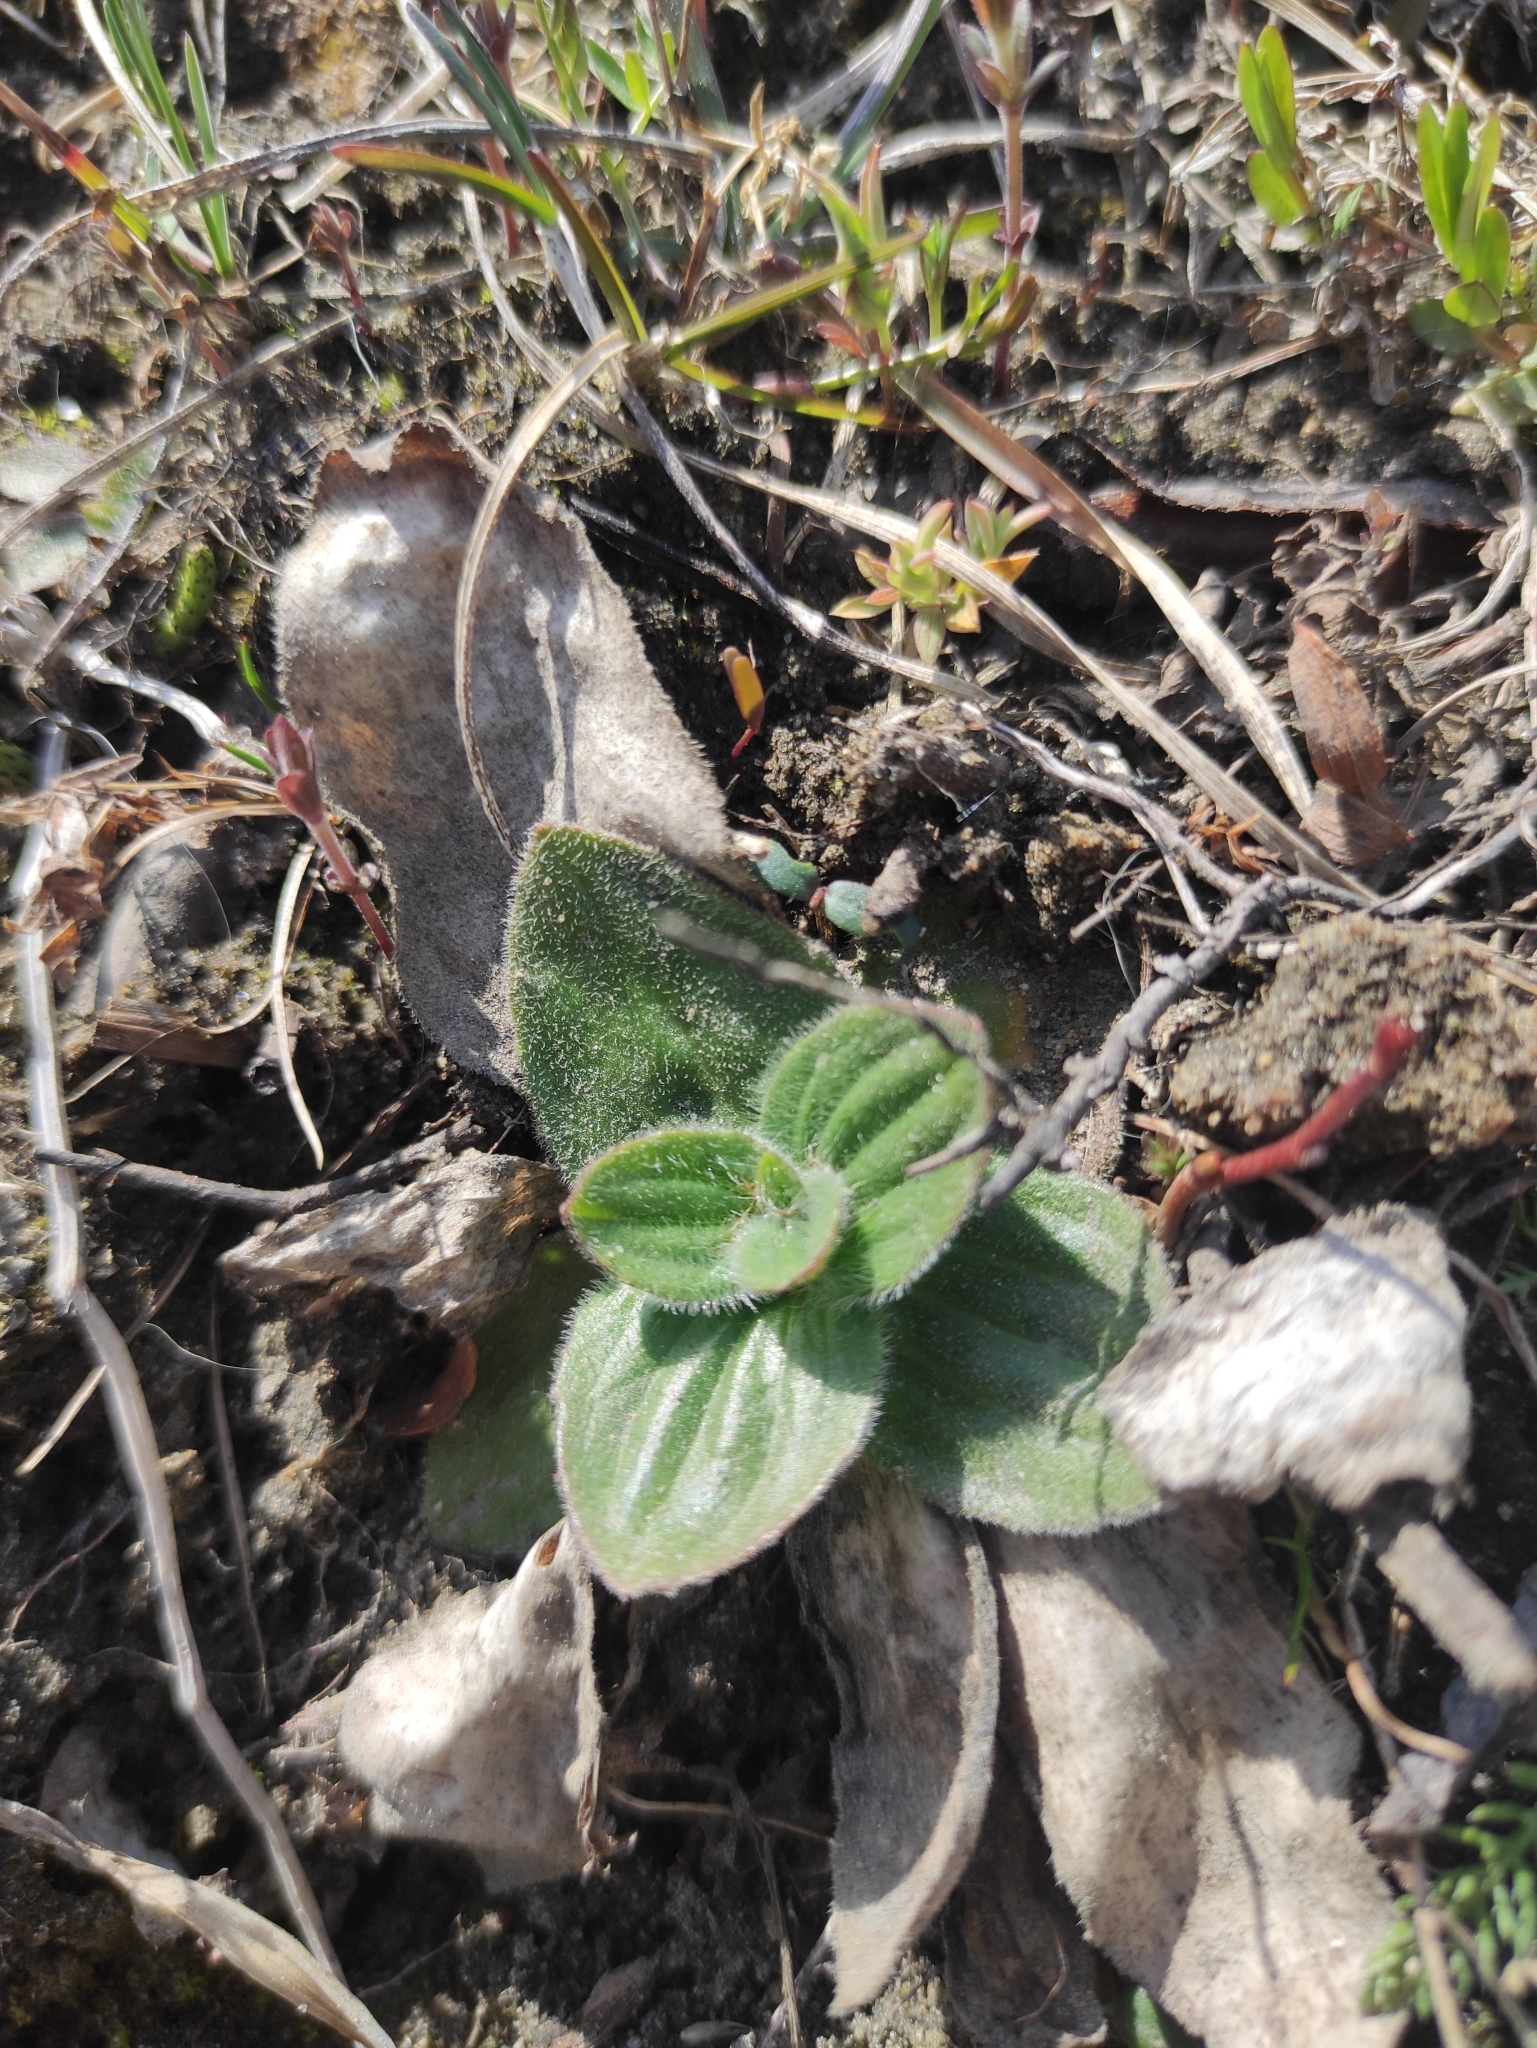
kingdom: Plantae
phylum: Tracheophyta
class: Magnoliopsida
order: Lamiales
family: Plantaginaceae
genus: Plantago
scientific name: Plantago media
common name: Hoary plantain
